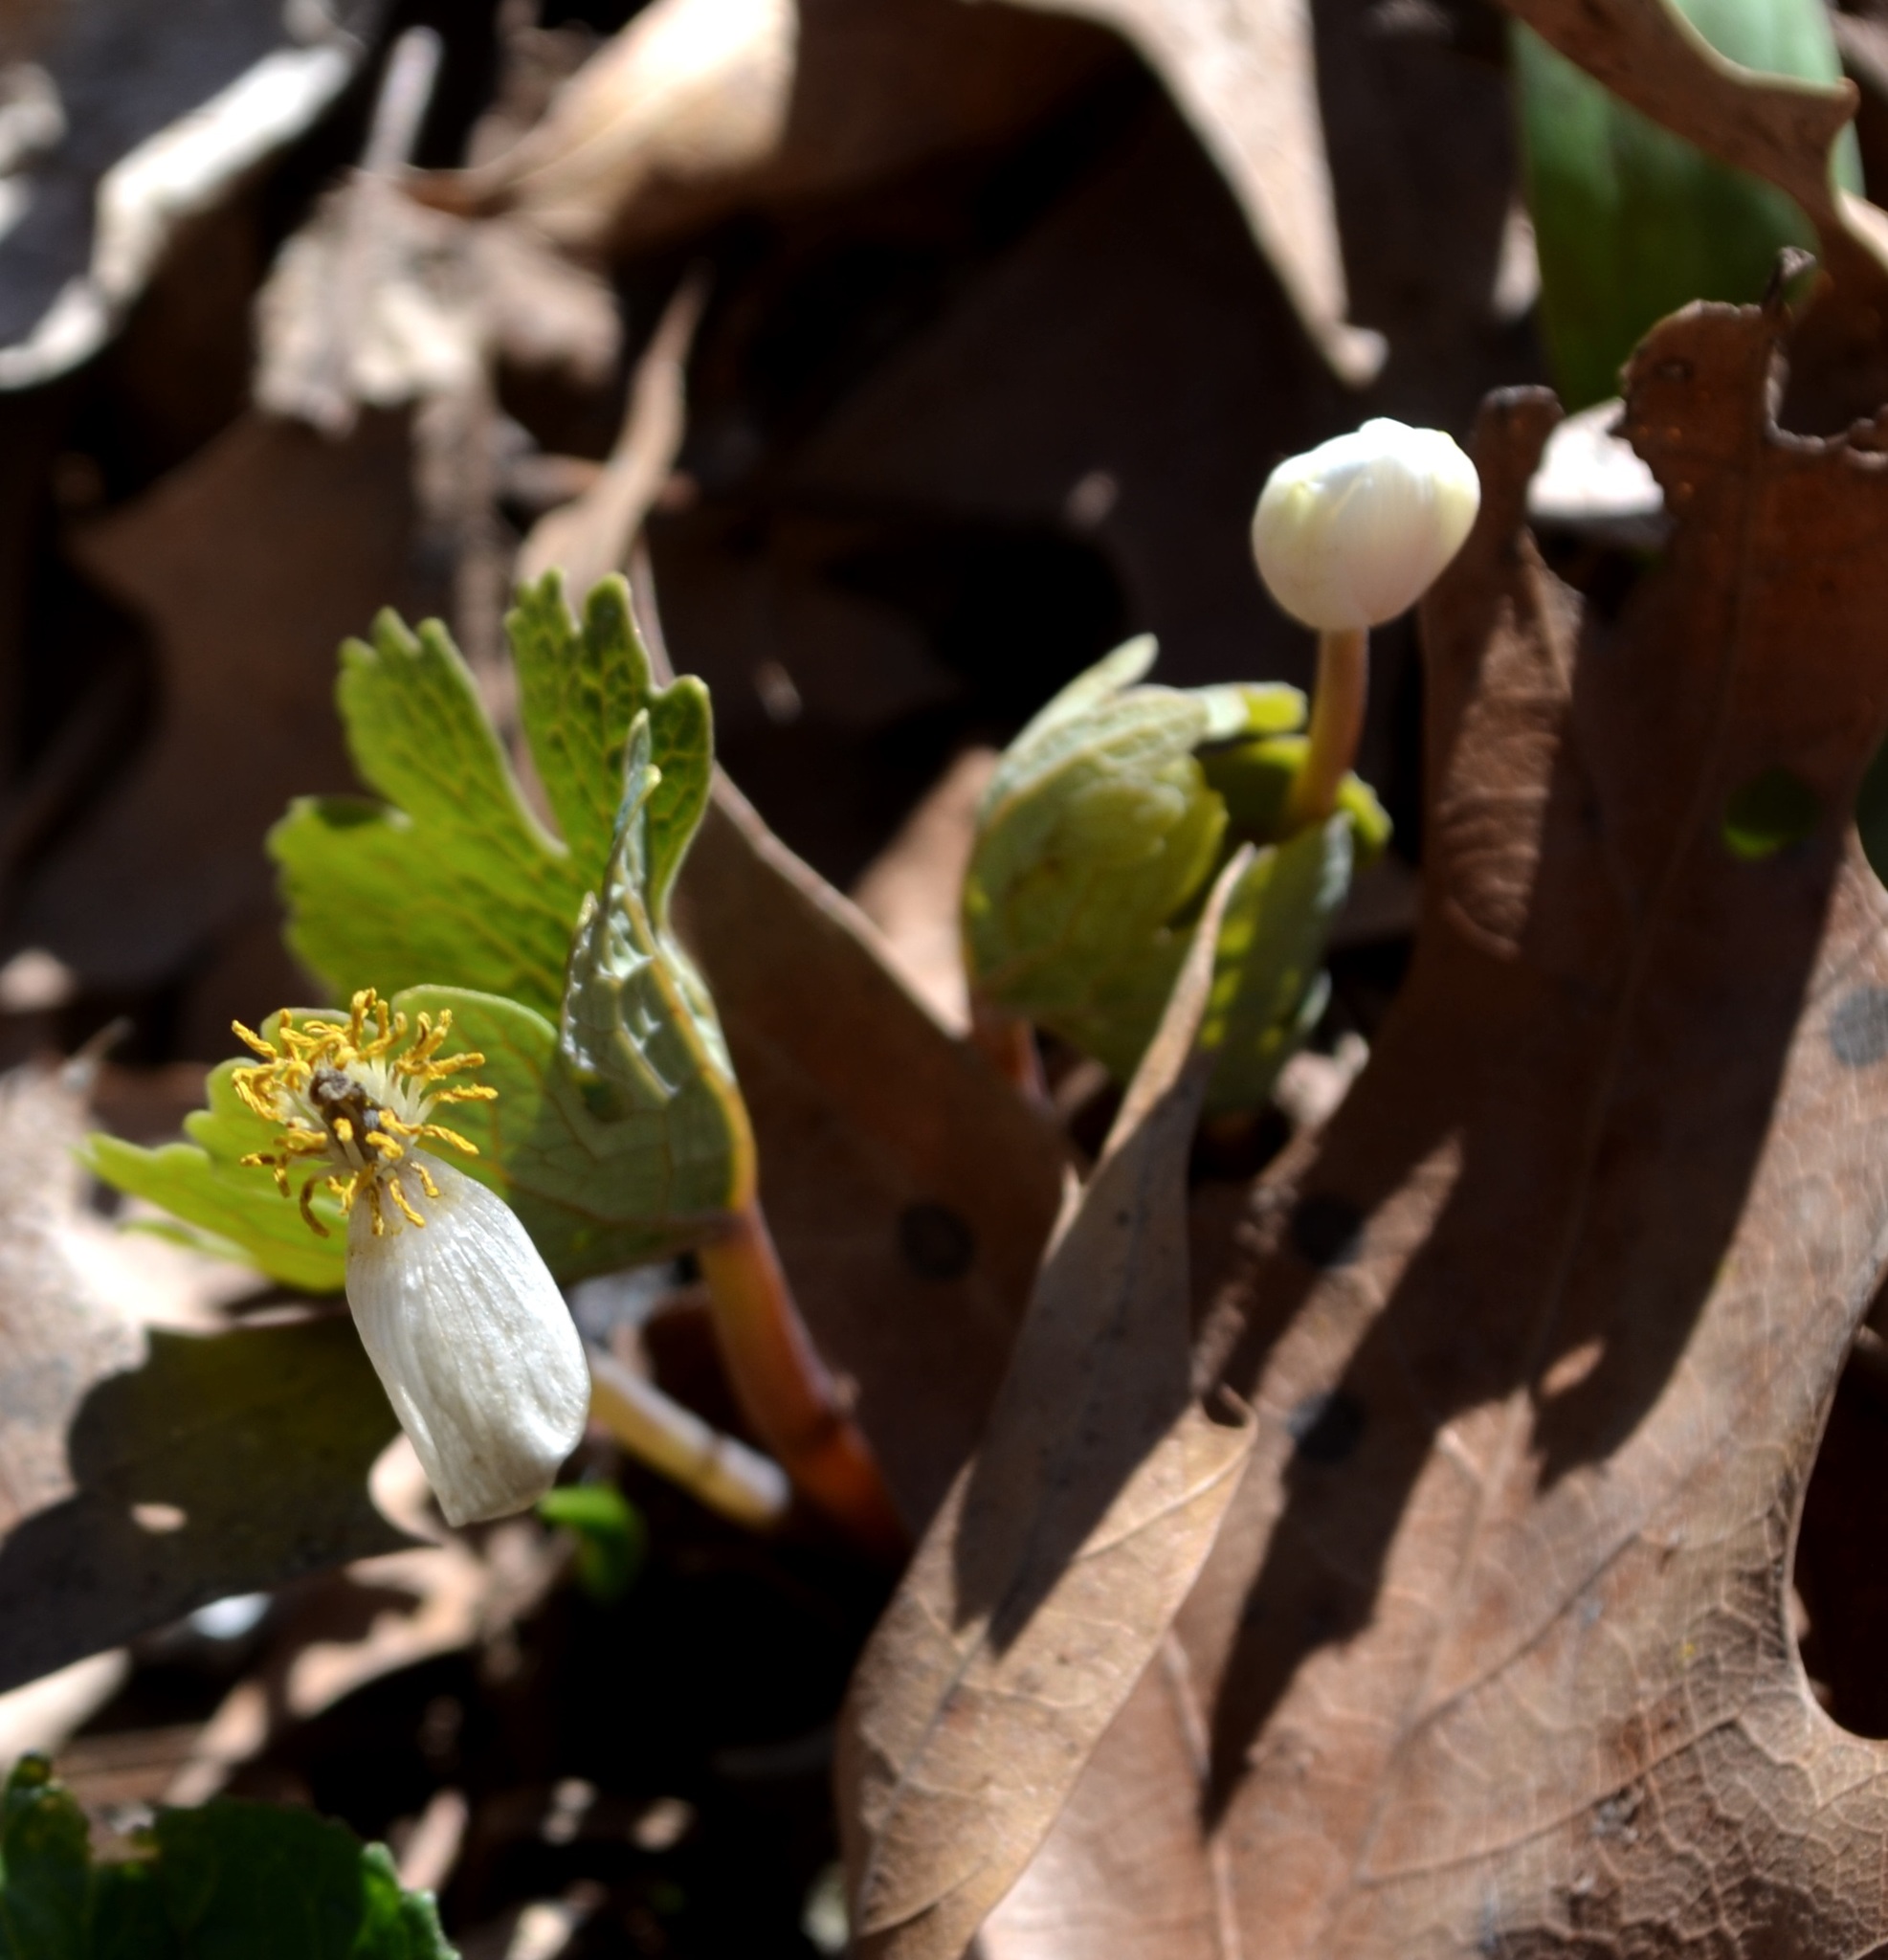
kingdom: Plantae
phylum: Tracheophyta
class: Magnoliopsida
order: Ranunculales
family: Papaveraceae
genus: Sanguinaria
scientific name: Sanguinaria canadensis
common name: Bloodroot
